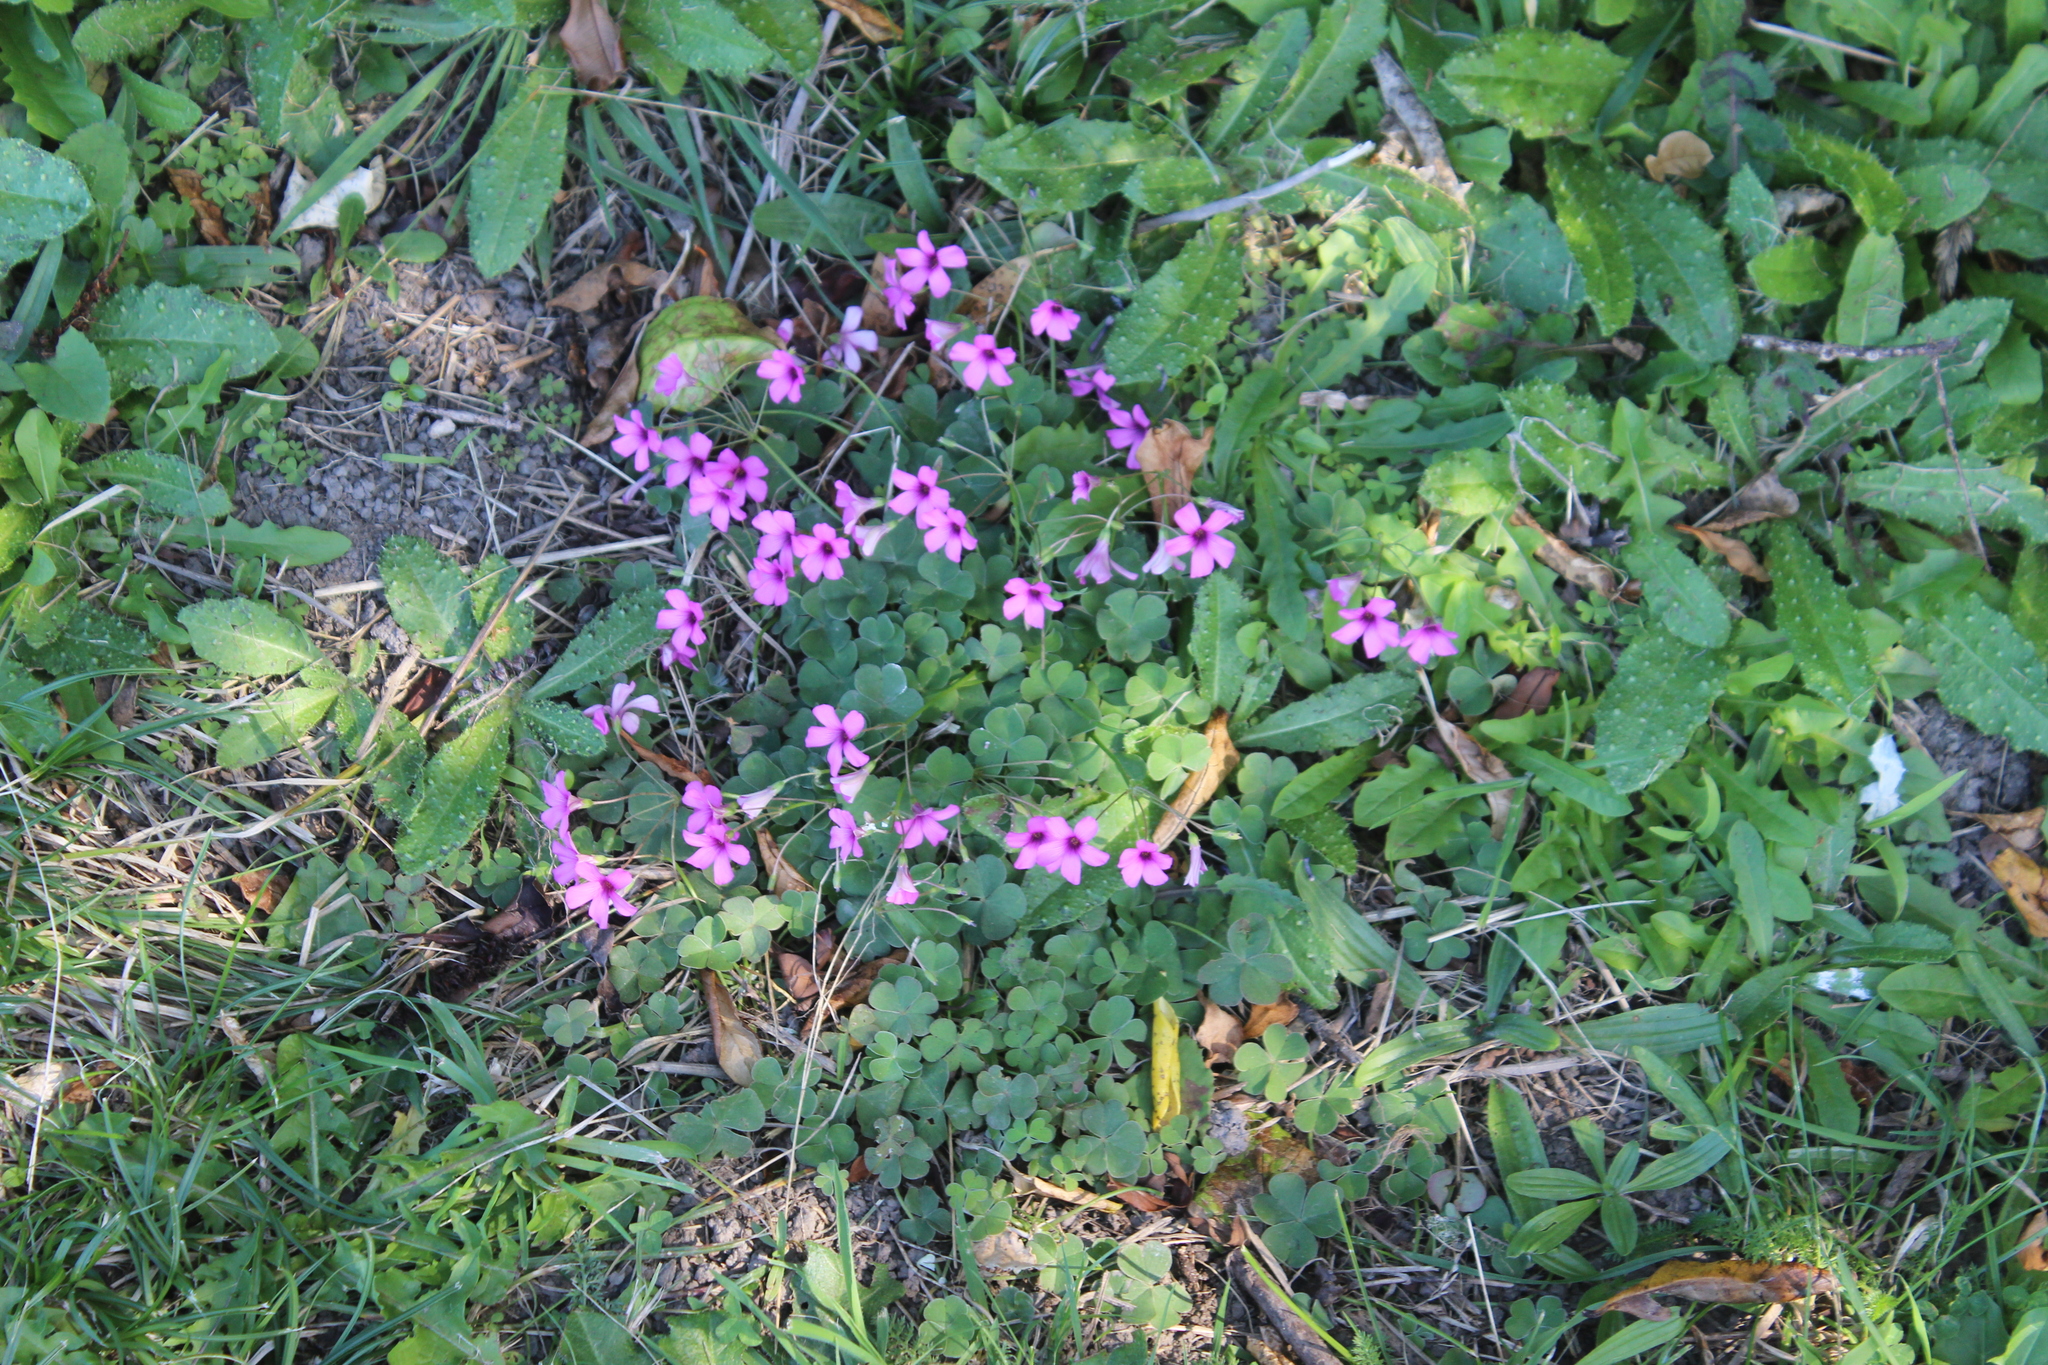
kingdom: Plantae
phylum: Tracheophyta
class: Magnoliopsida
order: Oxalidales
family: Oxalidaceae
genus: Oxalis
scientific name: Oxalis articulata
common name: Pink-sorrel
